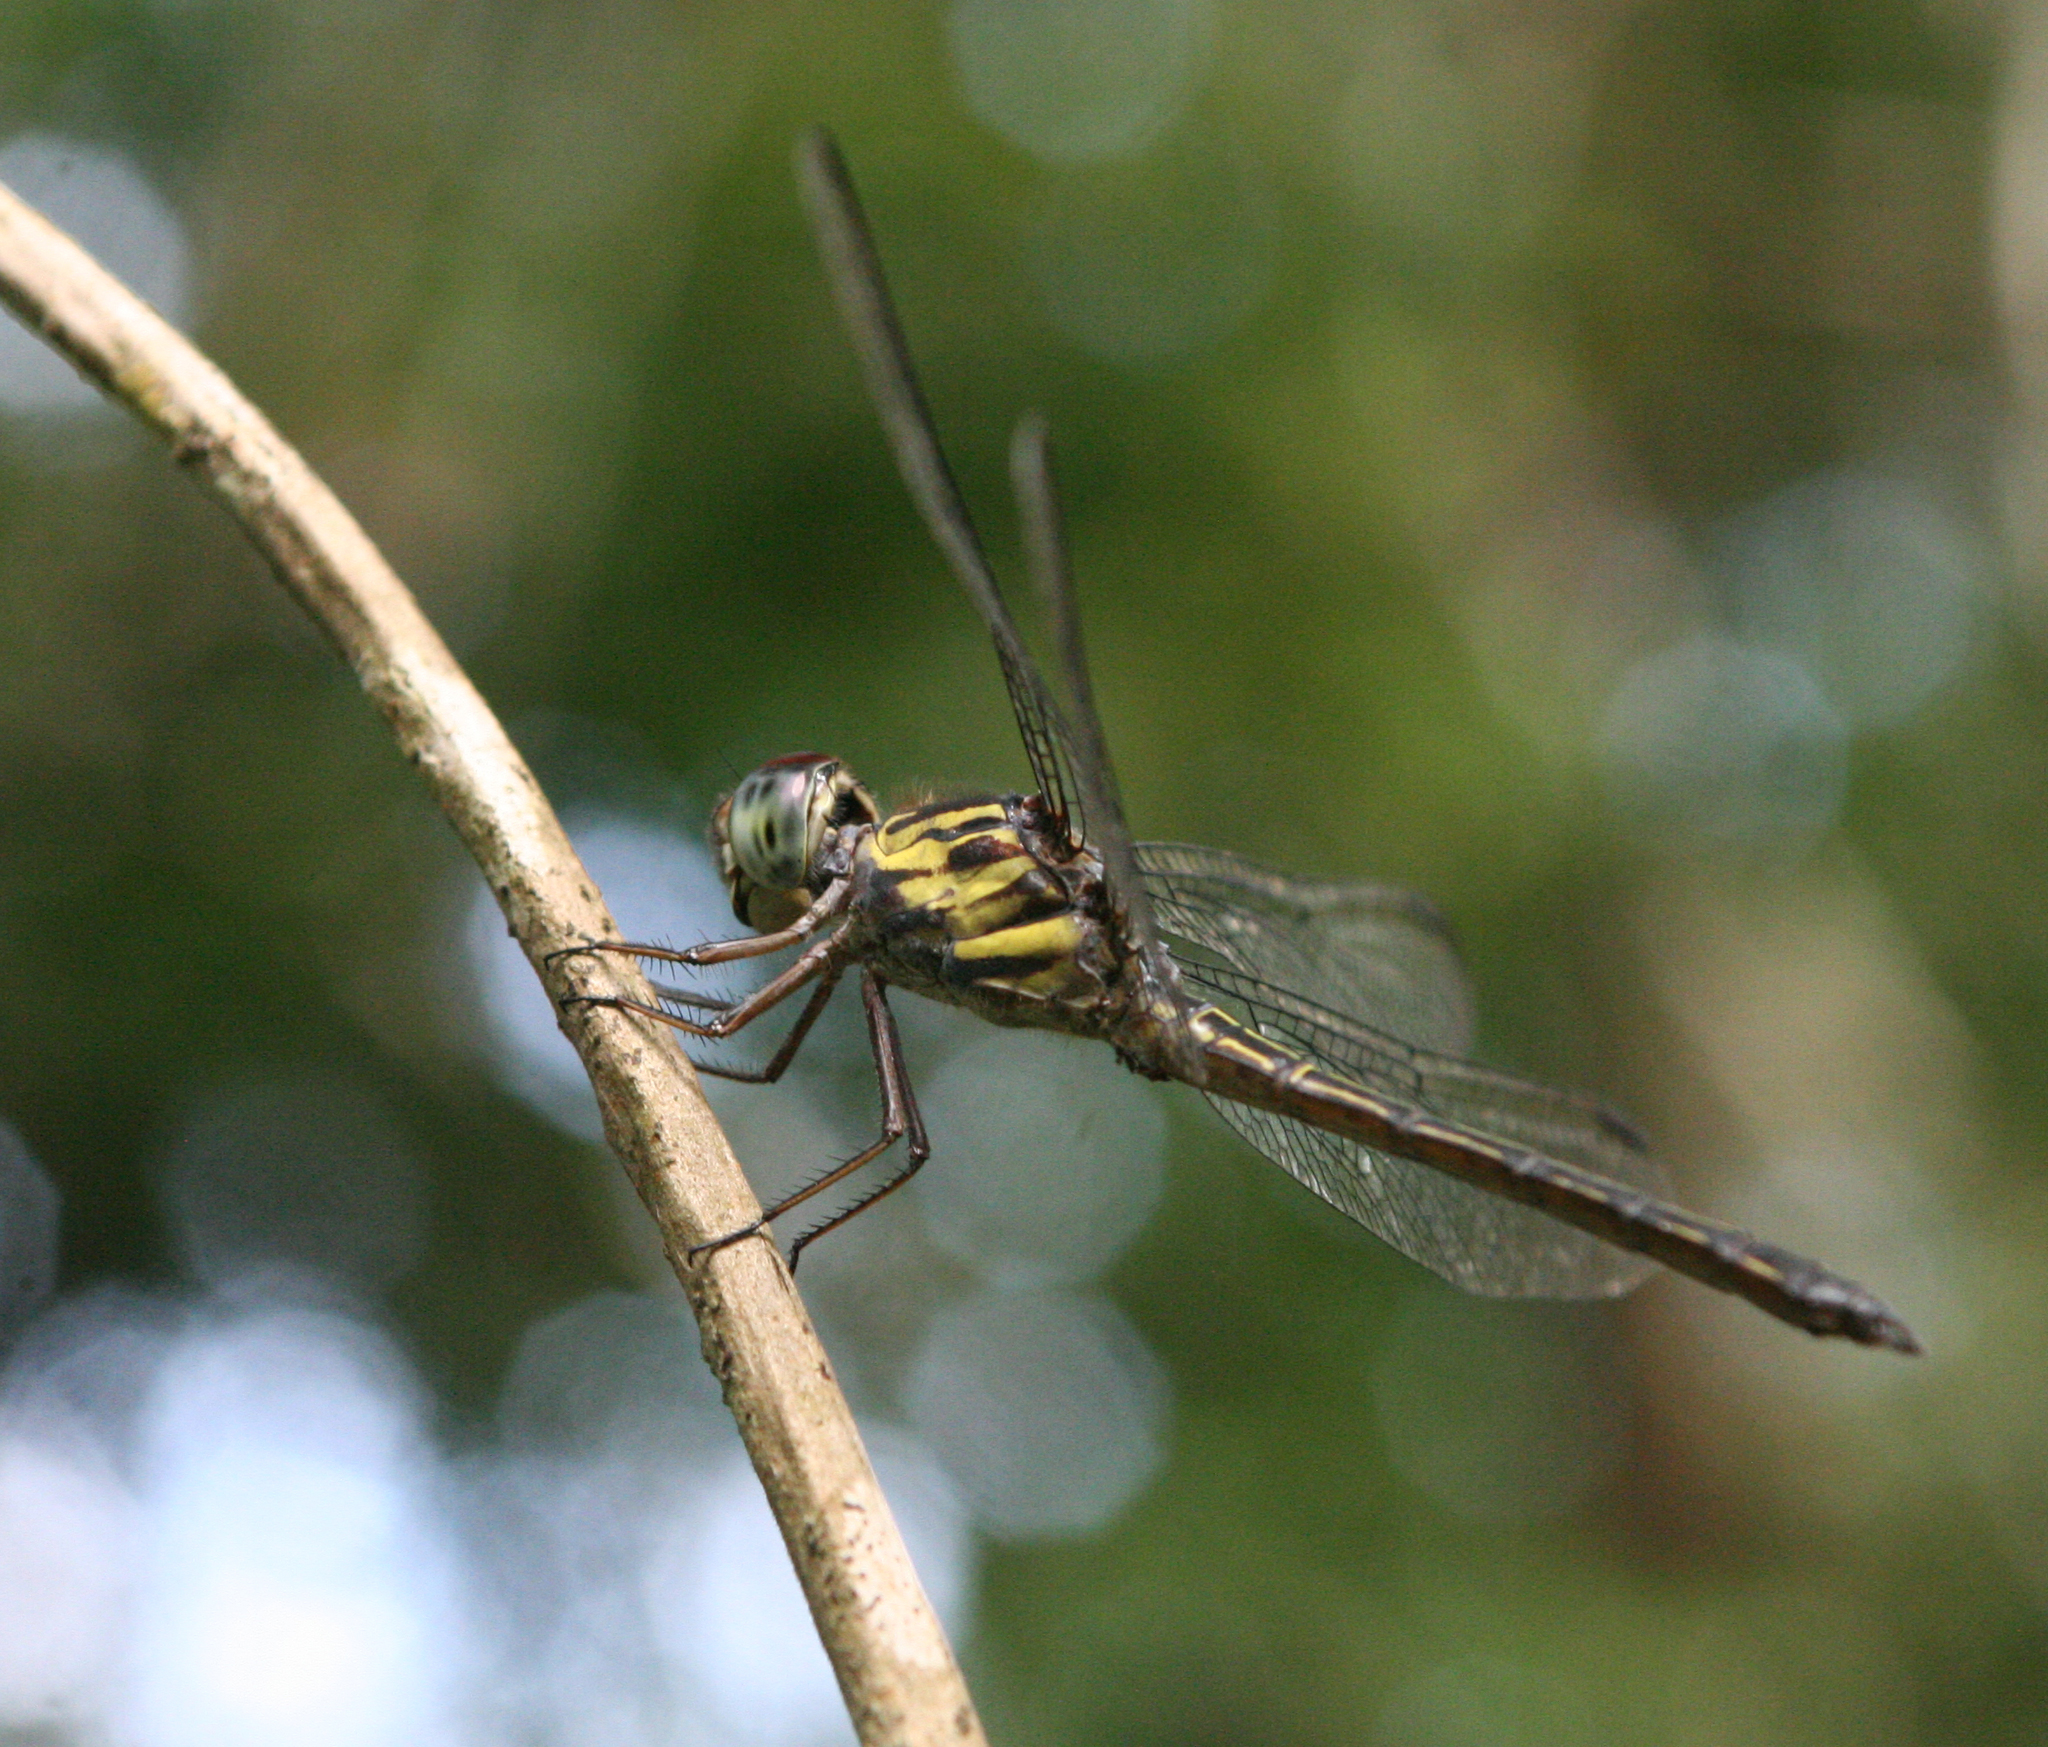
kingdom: Animalia
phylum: Arthropoda
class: Insecta
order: Odonata
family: Libellulidae
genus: Cratilla
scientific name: Cratilla lineata
